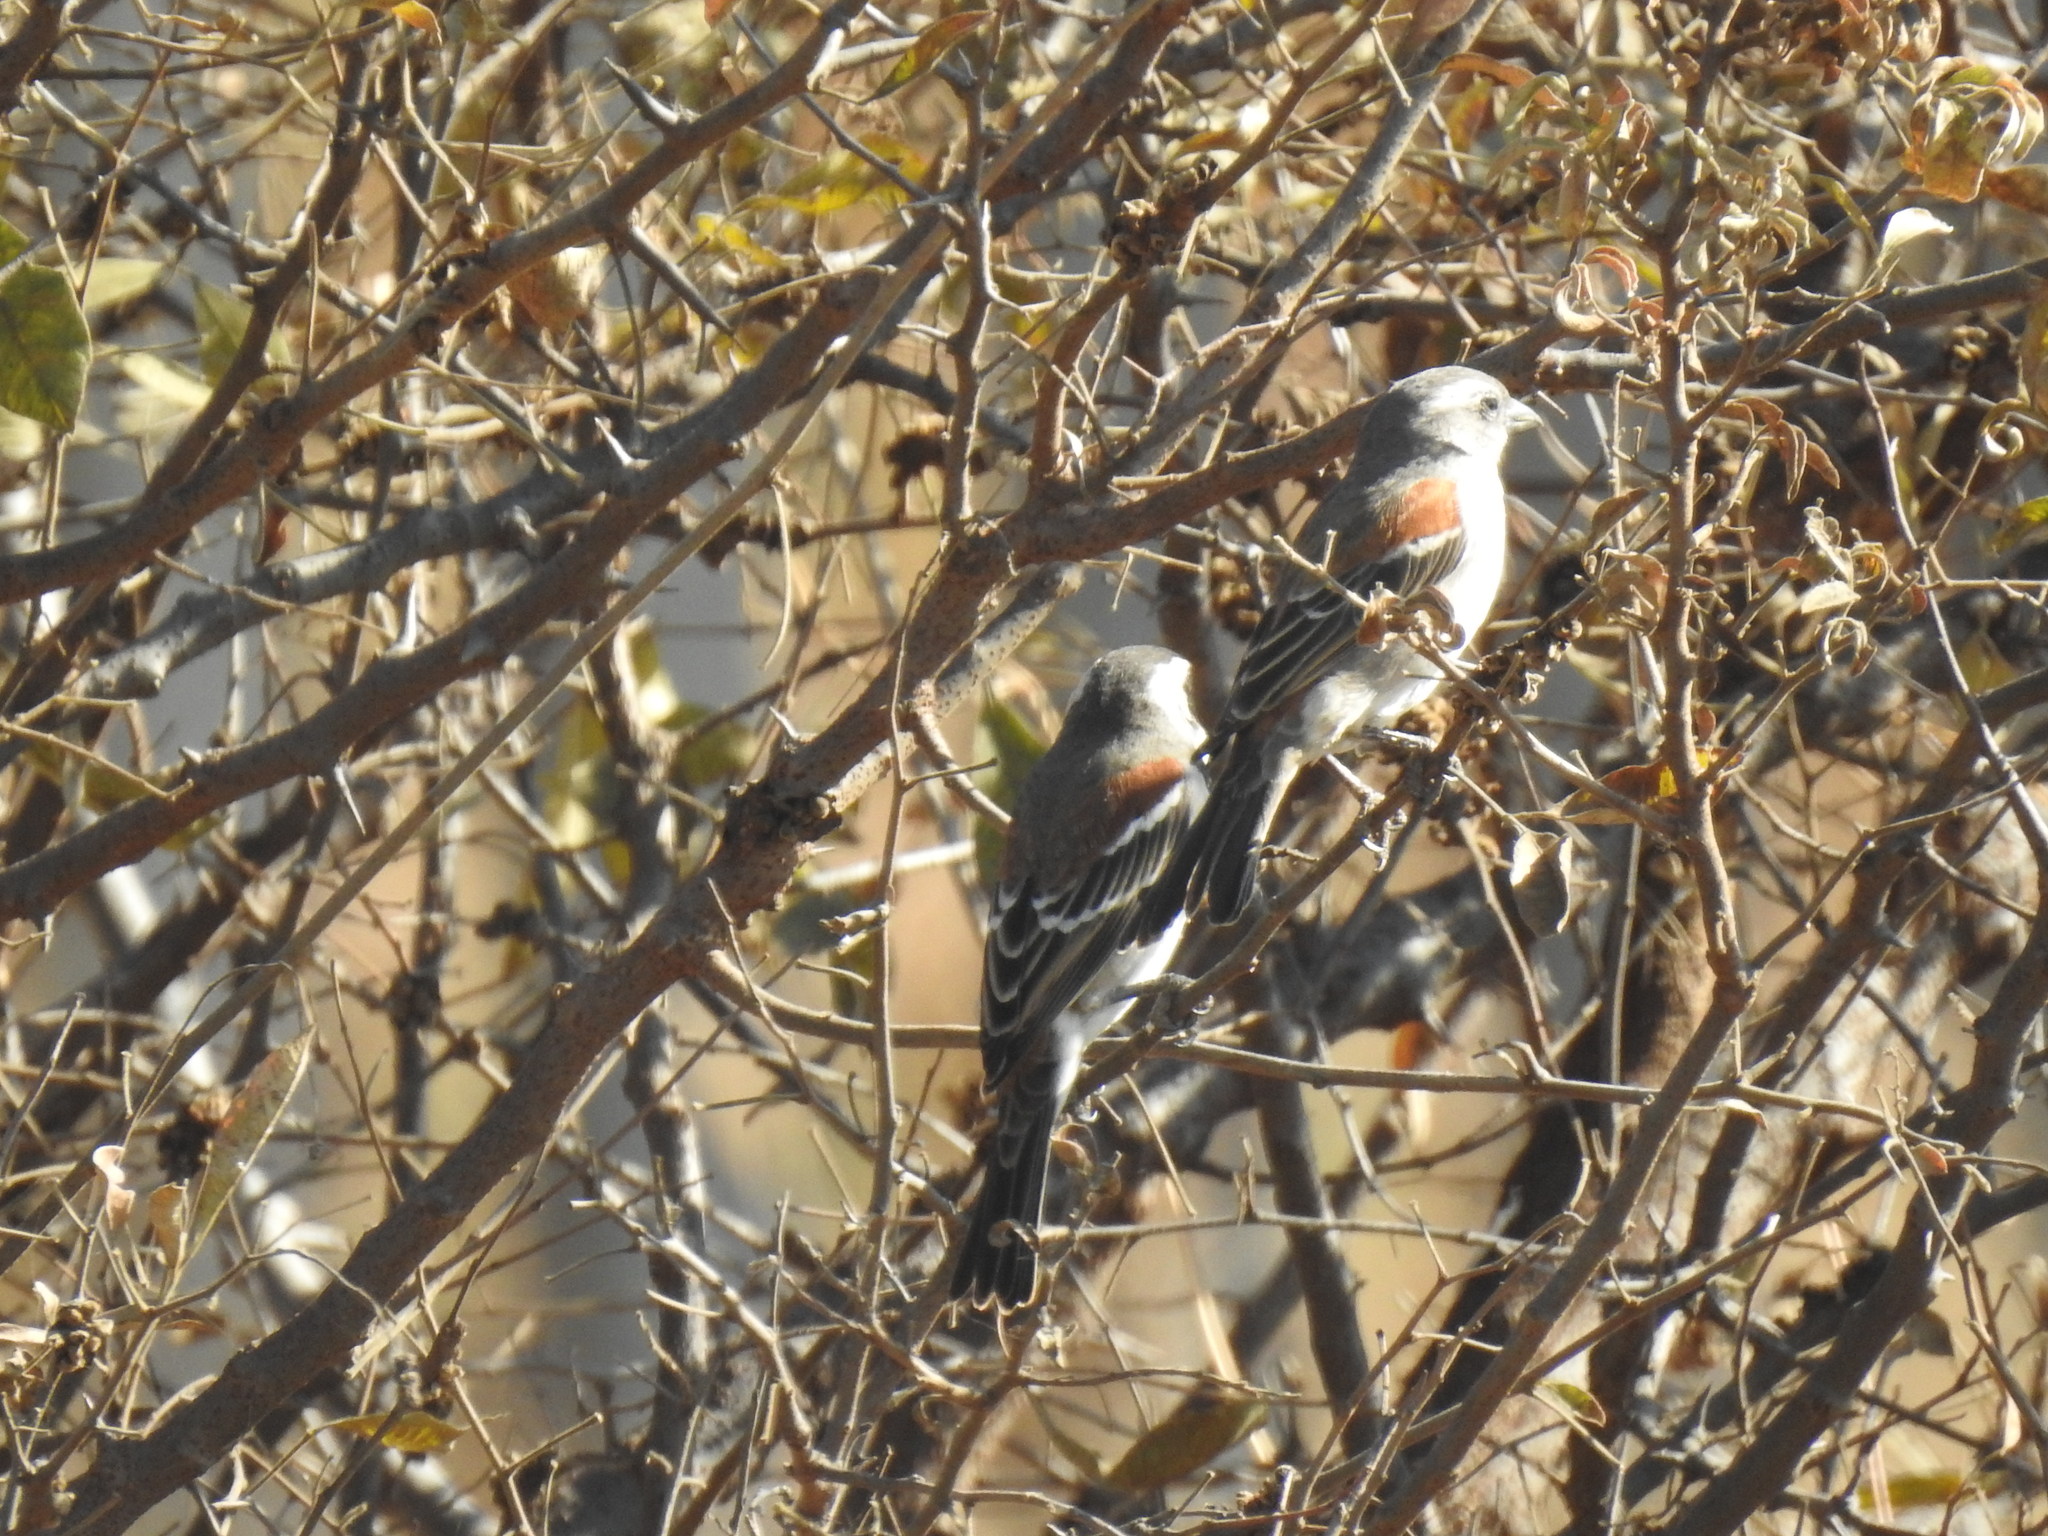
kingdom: Animalia
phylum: Chordata
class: Aves
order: Passeriformes
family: Passeridae
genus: Passer
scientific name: Passer melanurus
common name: Cape sparrow
